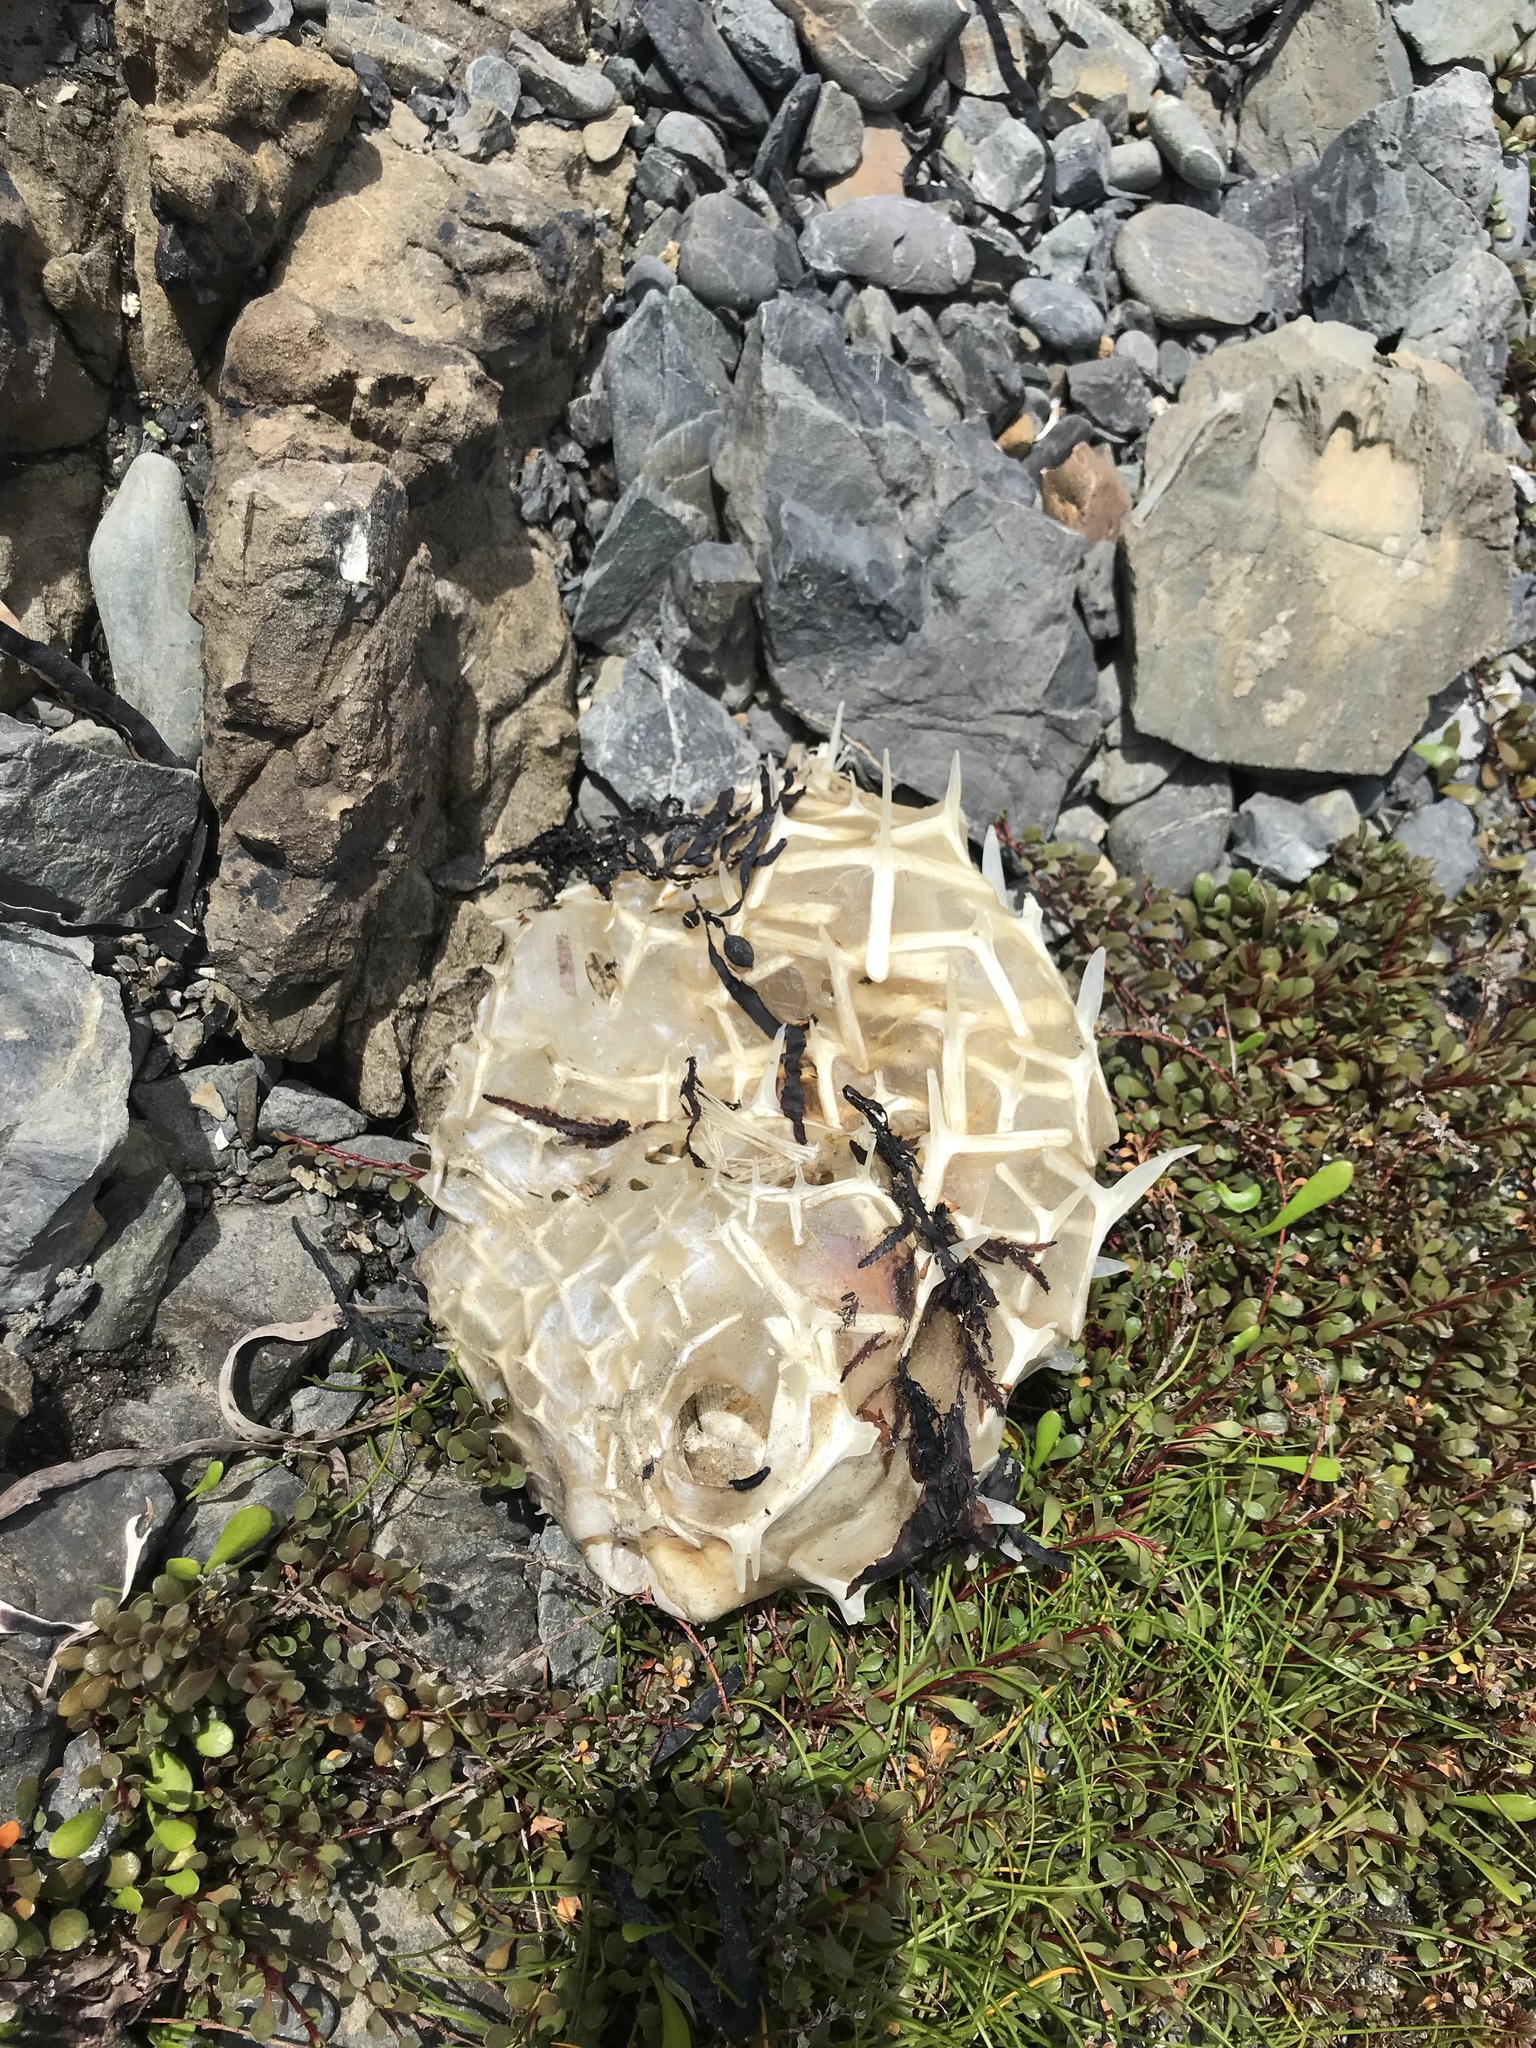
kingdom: Animalia
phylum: Chordata
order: Tetraodontiformes
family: Diodontidae
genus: Allomycterus
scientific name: Allomycterus pilatus
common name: No common name
